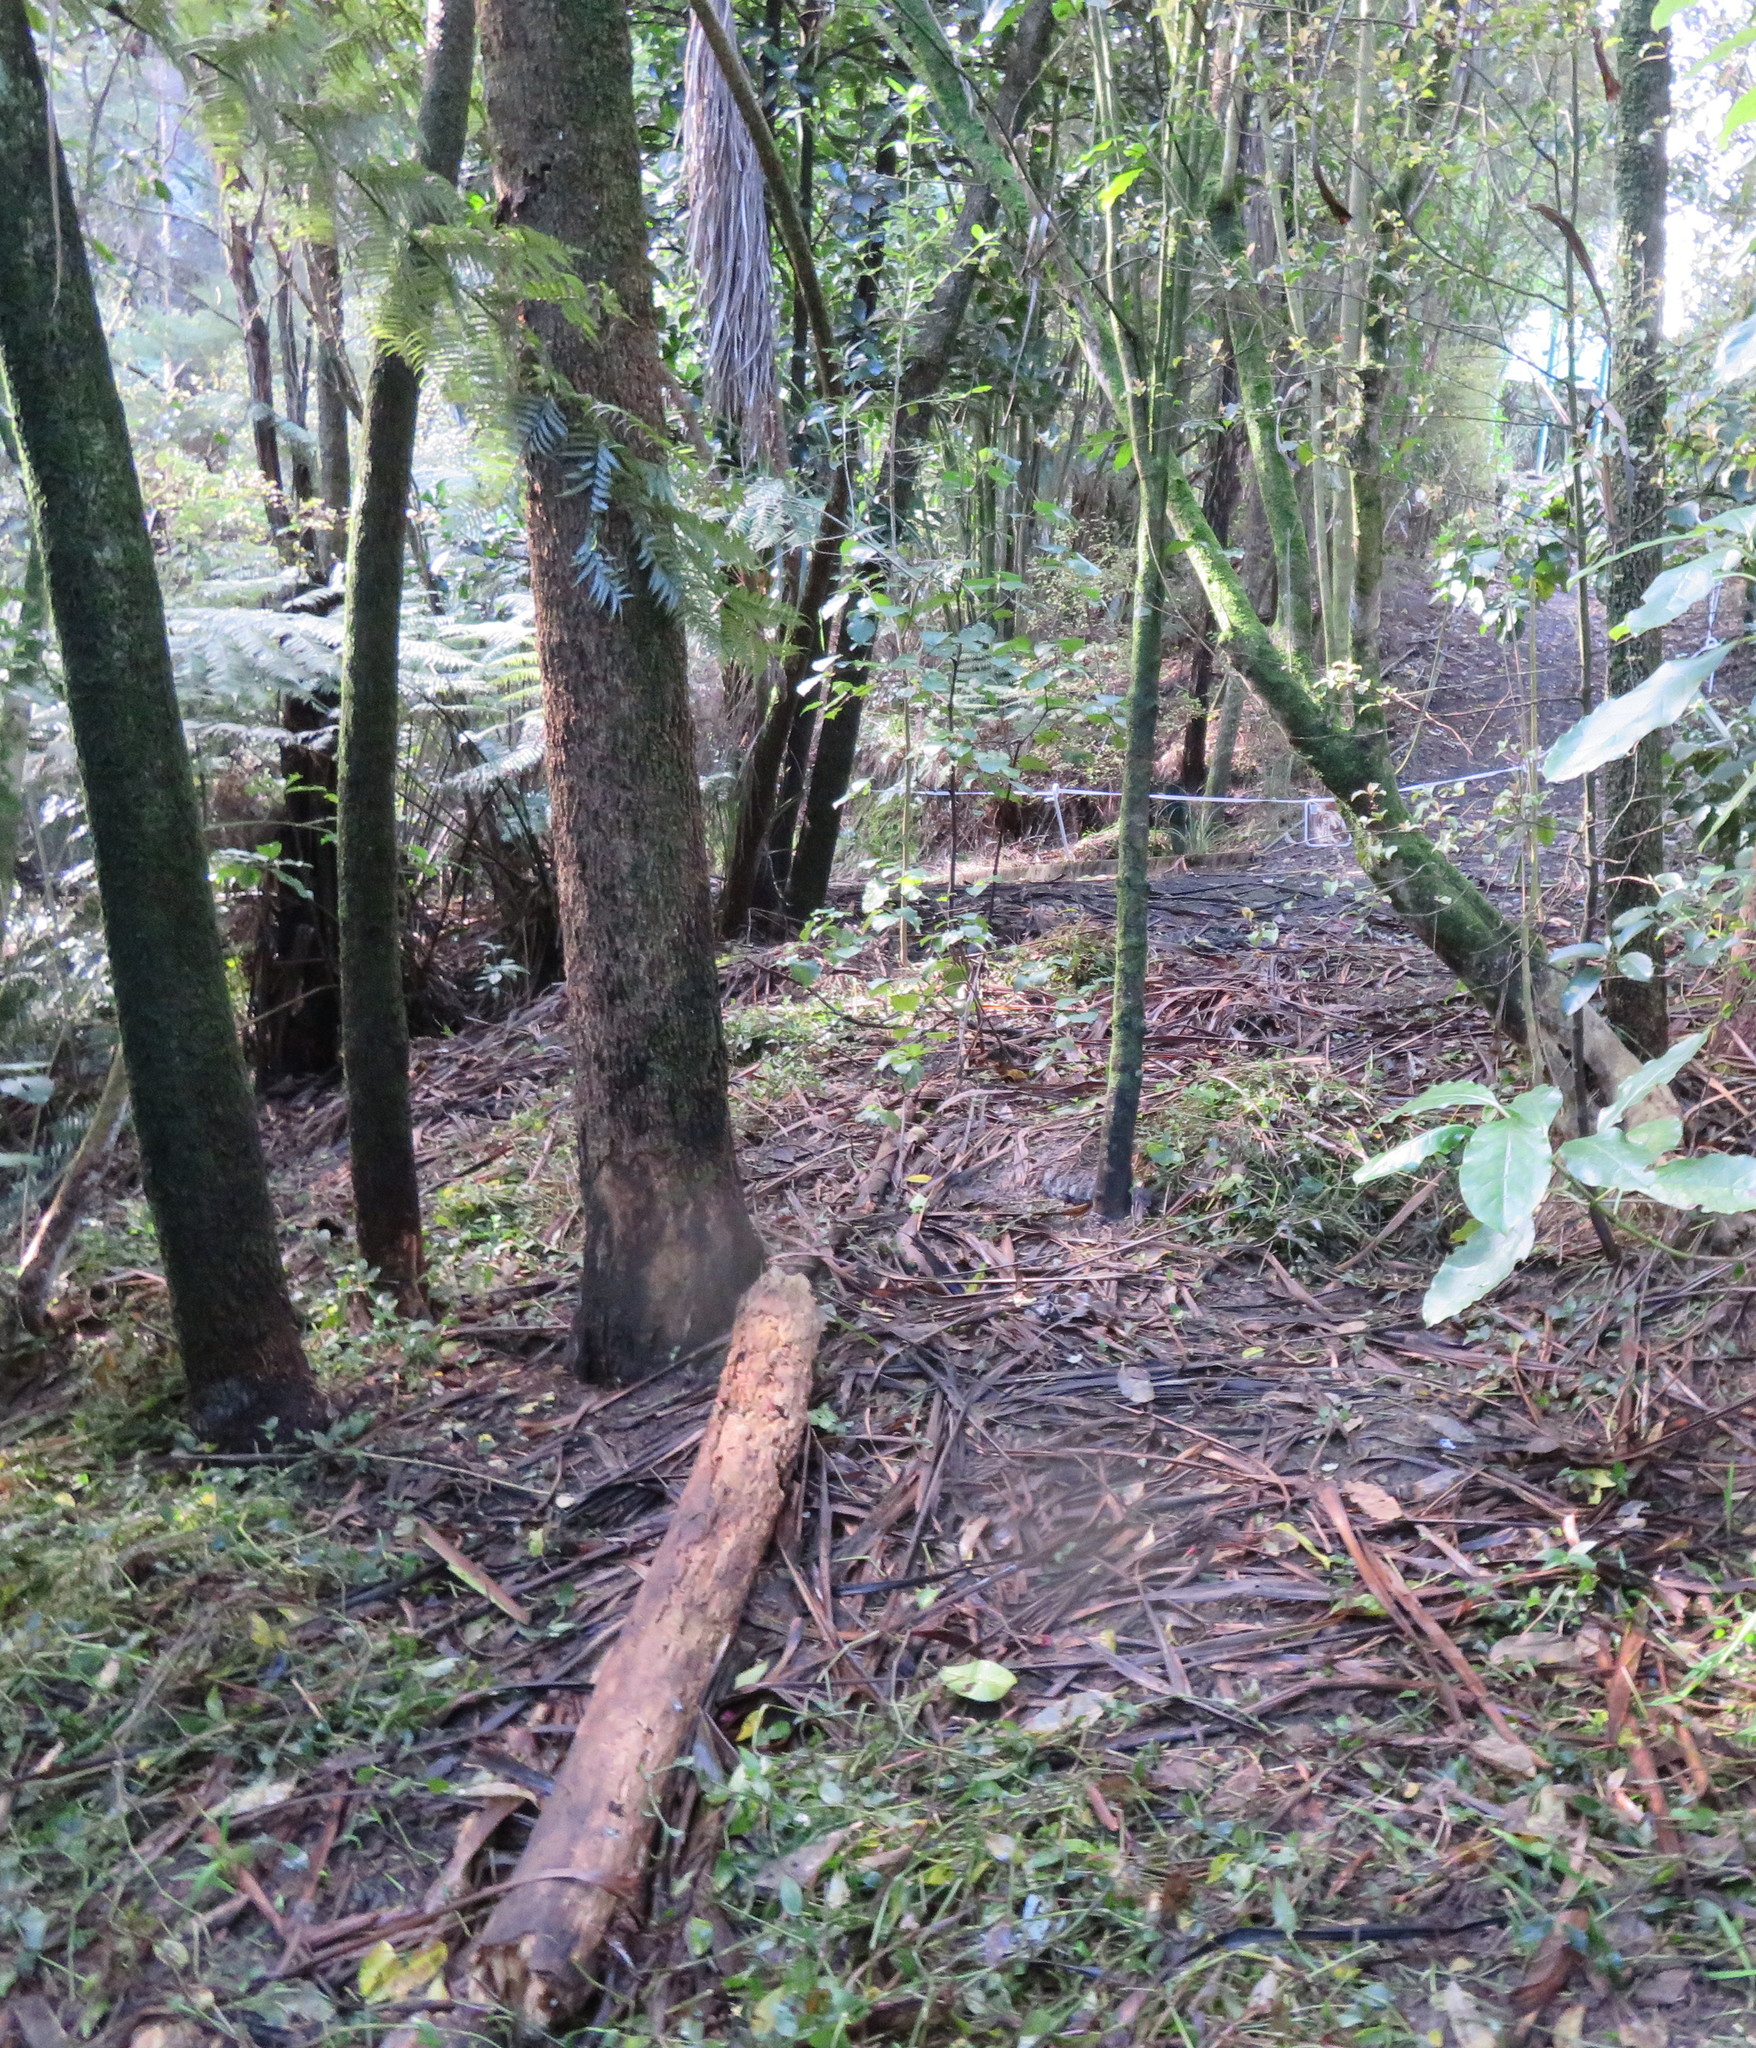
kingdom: Plantae
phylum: Tracheophyta
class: Liliopsida
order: Commelinales
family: Commelinaceae
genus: Tradescantia
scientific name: Tradescantia fluminensis
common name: Wandering-jew
